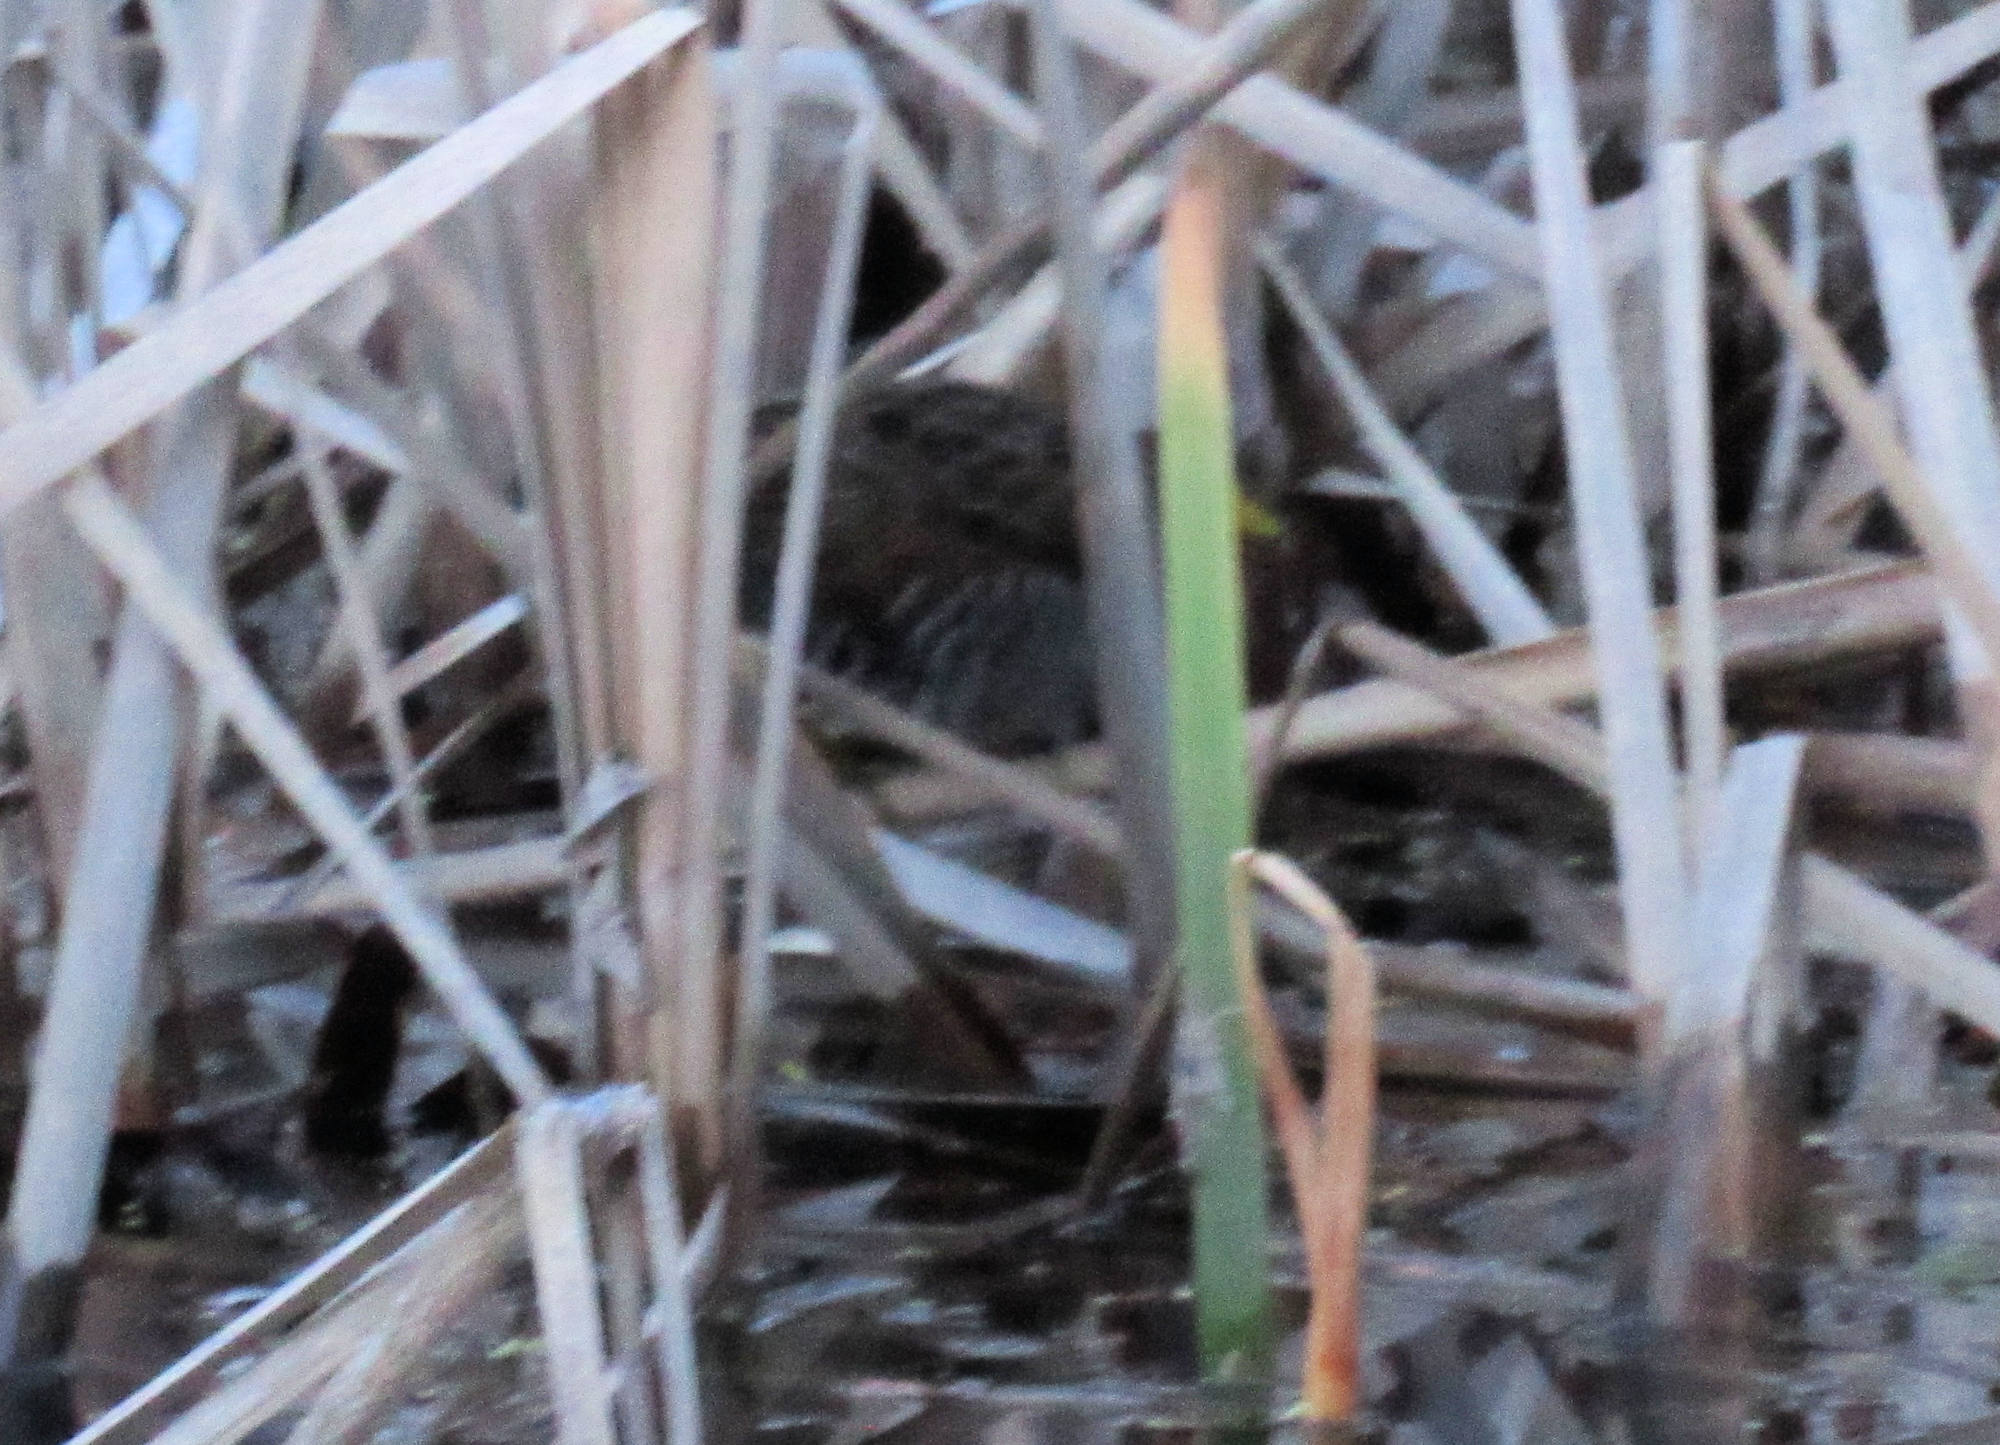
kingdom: Animalia
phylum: Chordata
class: Aves
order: Gruiformes
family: Rallidae
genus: Porzana
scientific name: Porzana carolina
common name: Sora
